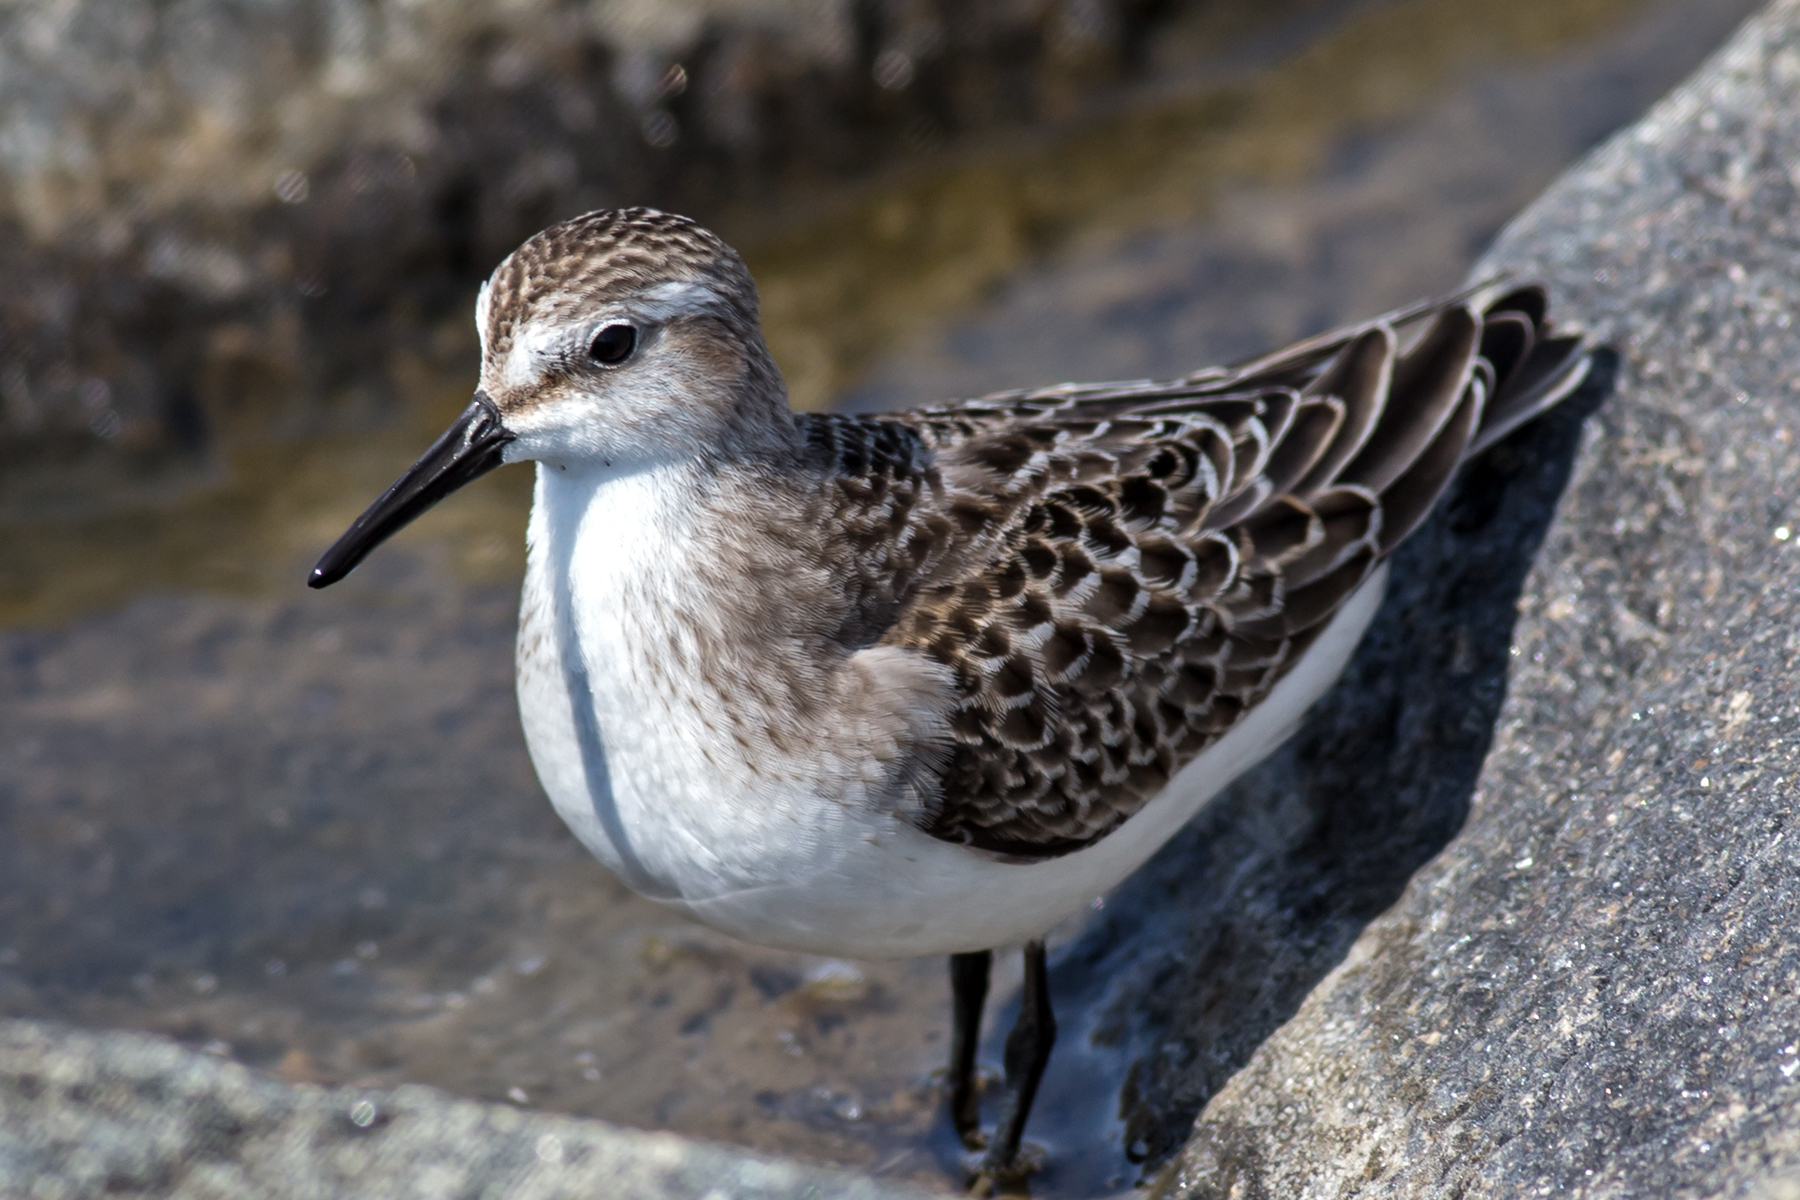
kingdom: Animalia
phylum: Chordata
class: Aves
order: Charadriiformes
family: Scolopacidae
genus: Calidris
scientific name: Calidris pusilla
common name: Semipalmated sandpiper
